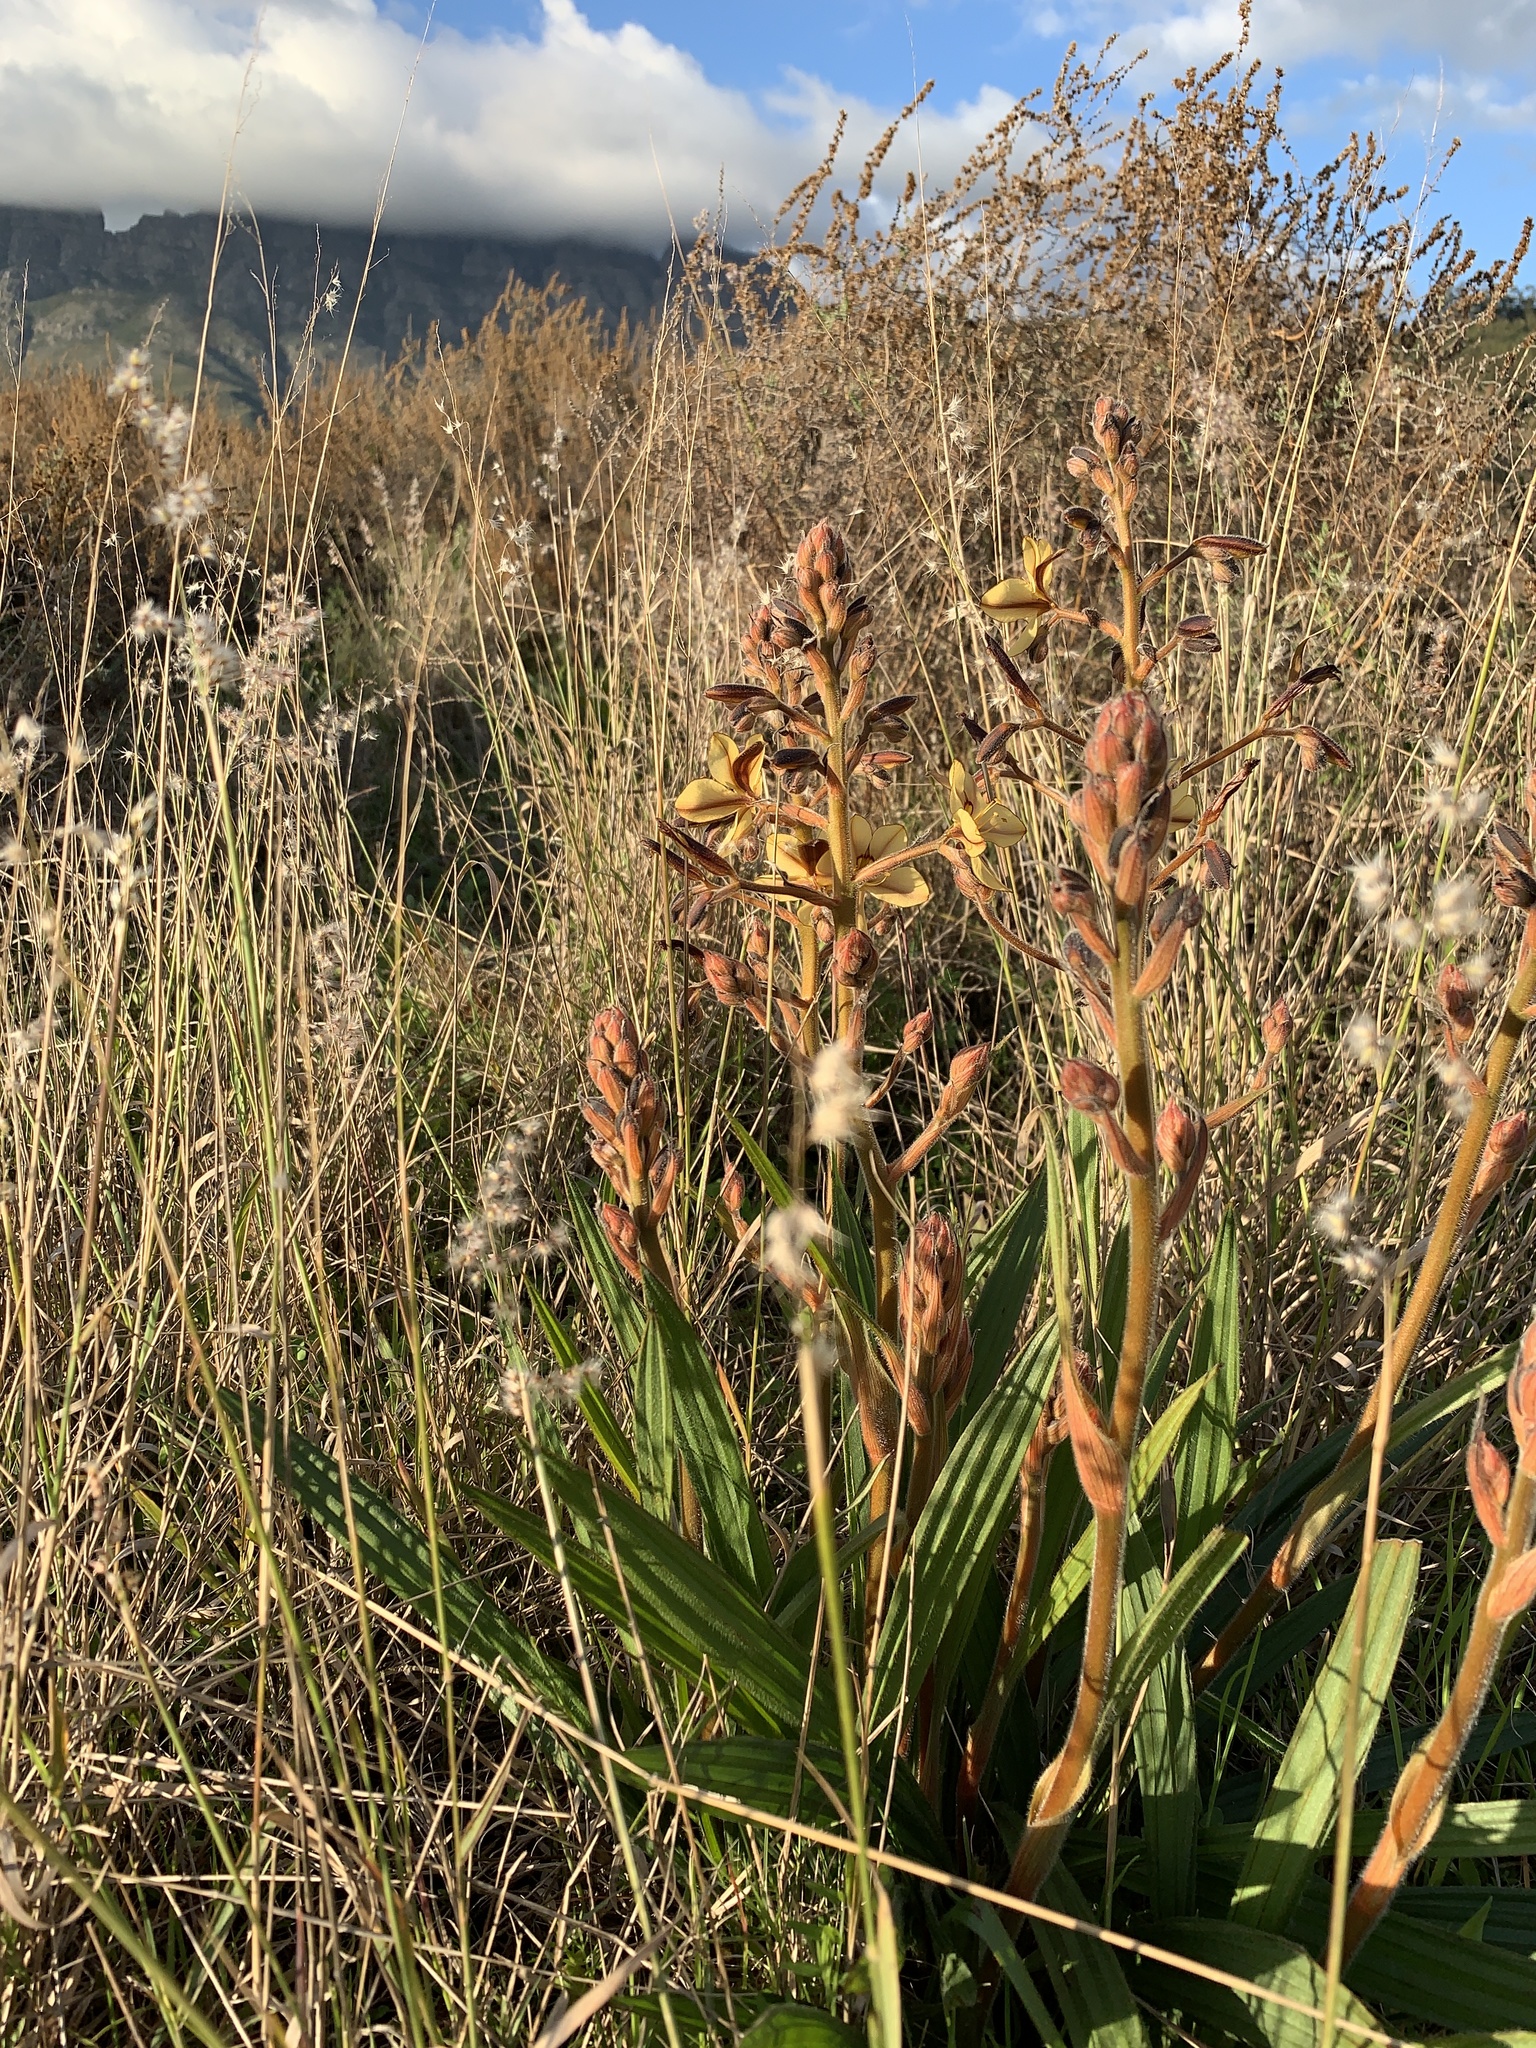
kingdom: Plantae
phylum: Tracheophyta
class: Liliopsida
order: Commelinales
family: Haemodoraceae
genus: Wachendorfia
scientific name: Wachendorfia paniculata
